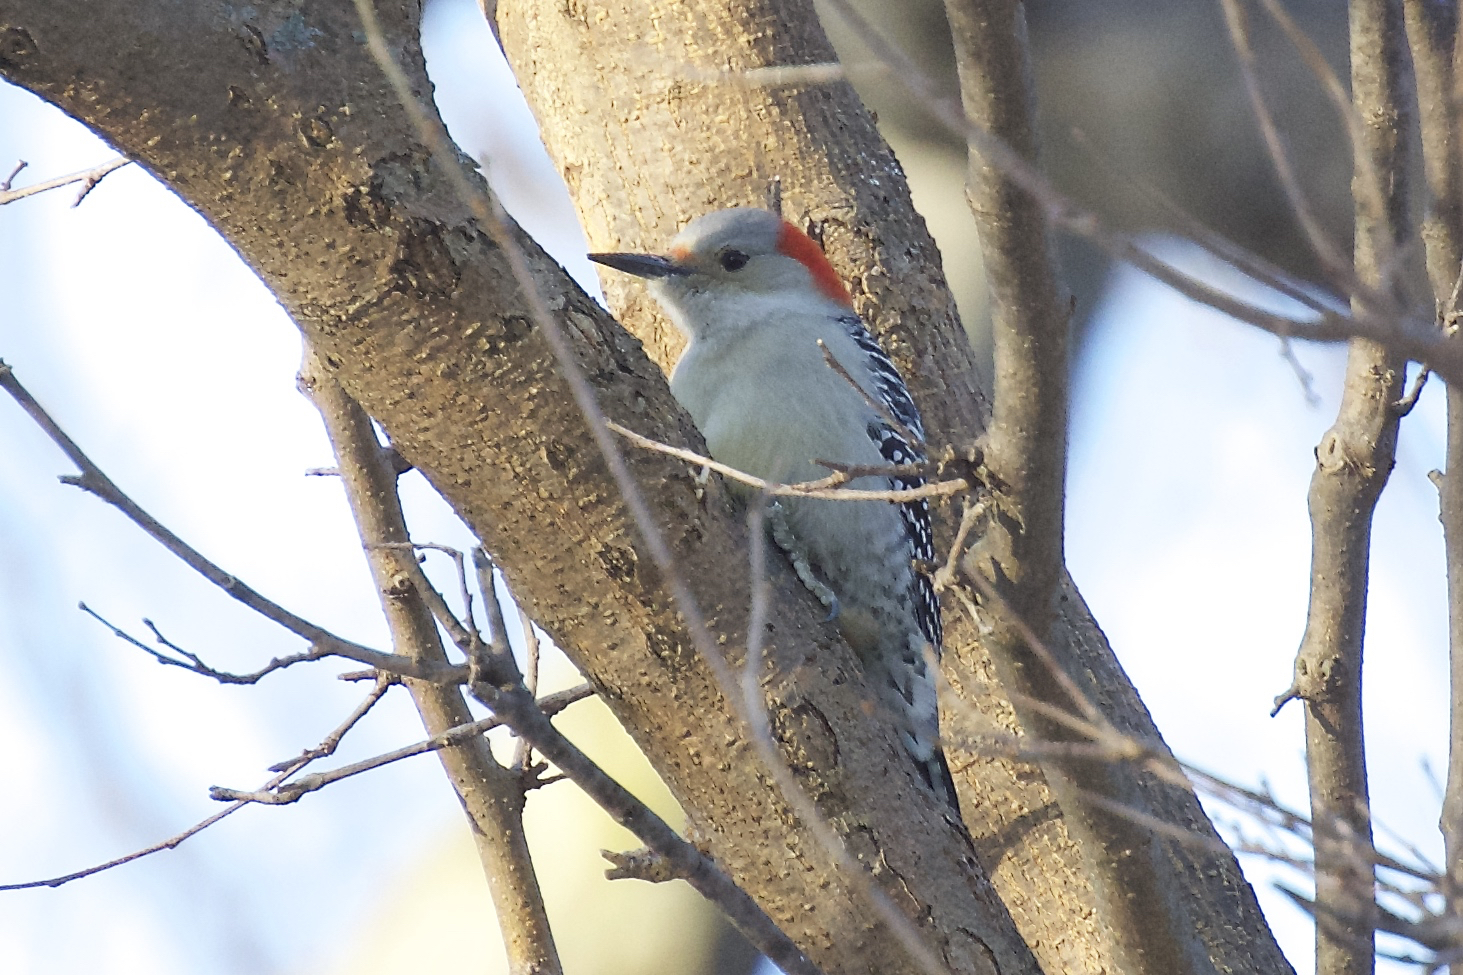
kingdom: Animalia
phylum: Chordata
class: Aves
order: Piciformes
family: Picidae
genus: Melanerpes
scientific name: Melanerpes carolinus
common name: Red-bellied woodpecker
